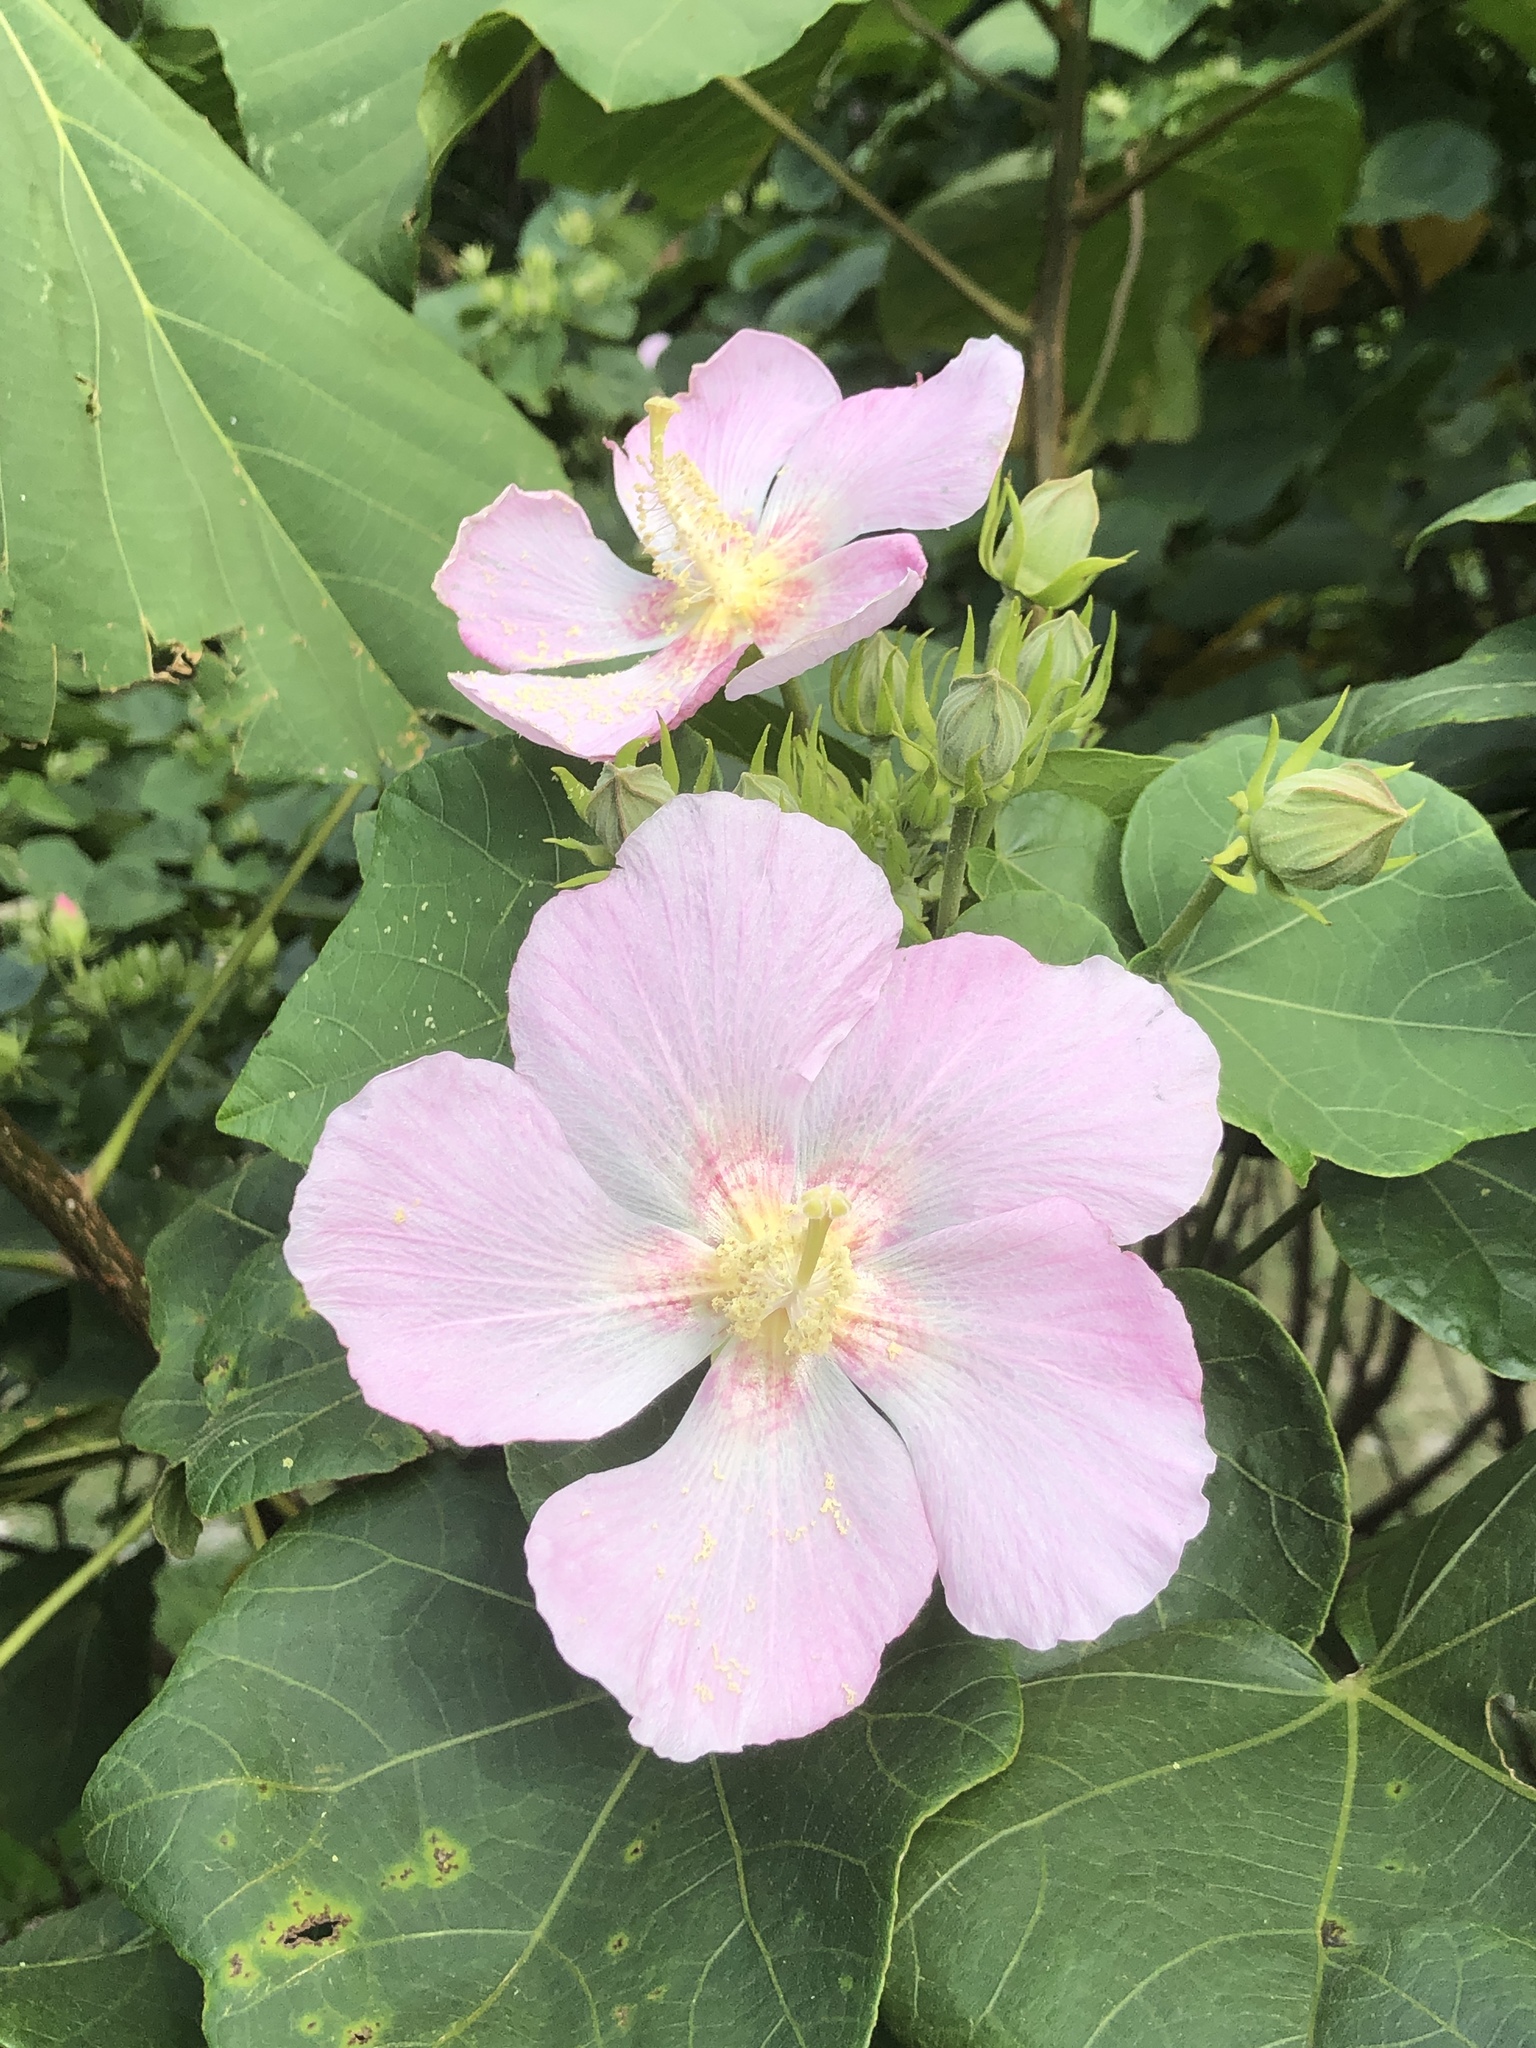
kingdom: Plantae
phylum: Tracheophyta
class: Magnoliopsida
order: Malvales
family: Malvaceae
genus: Hibiscus
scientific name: Hibiscus makinoi
